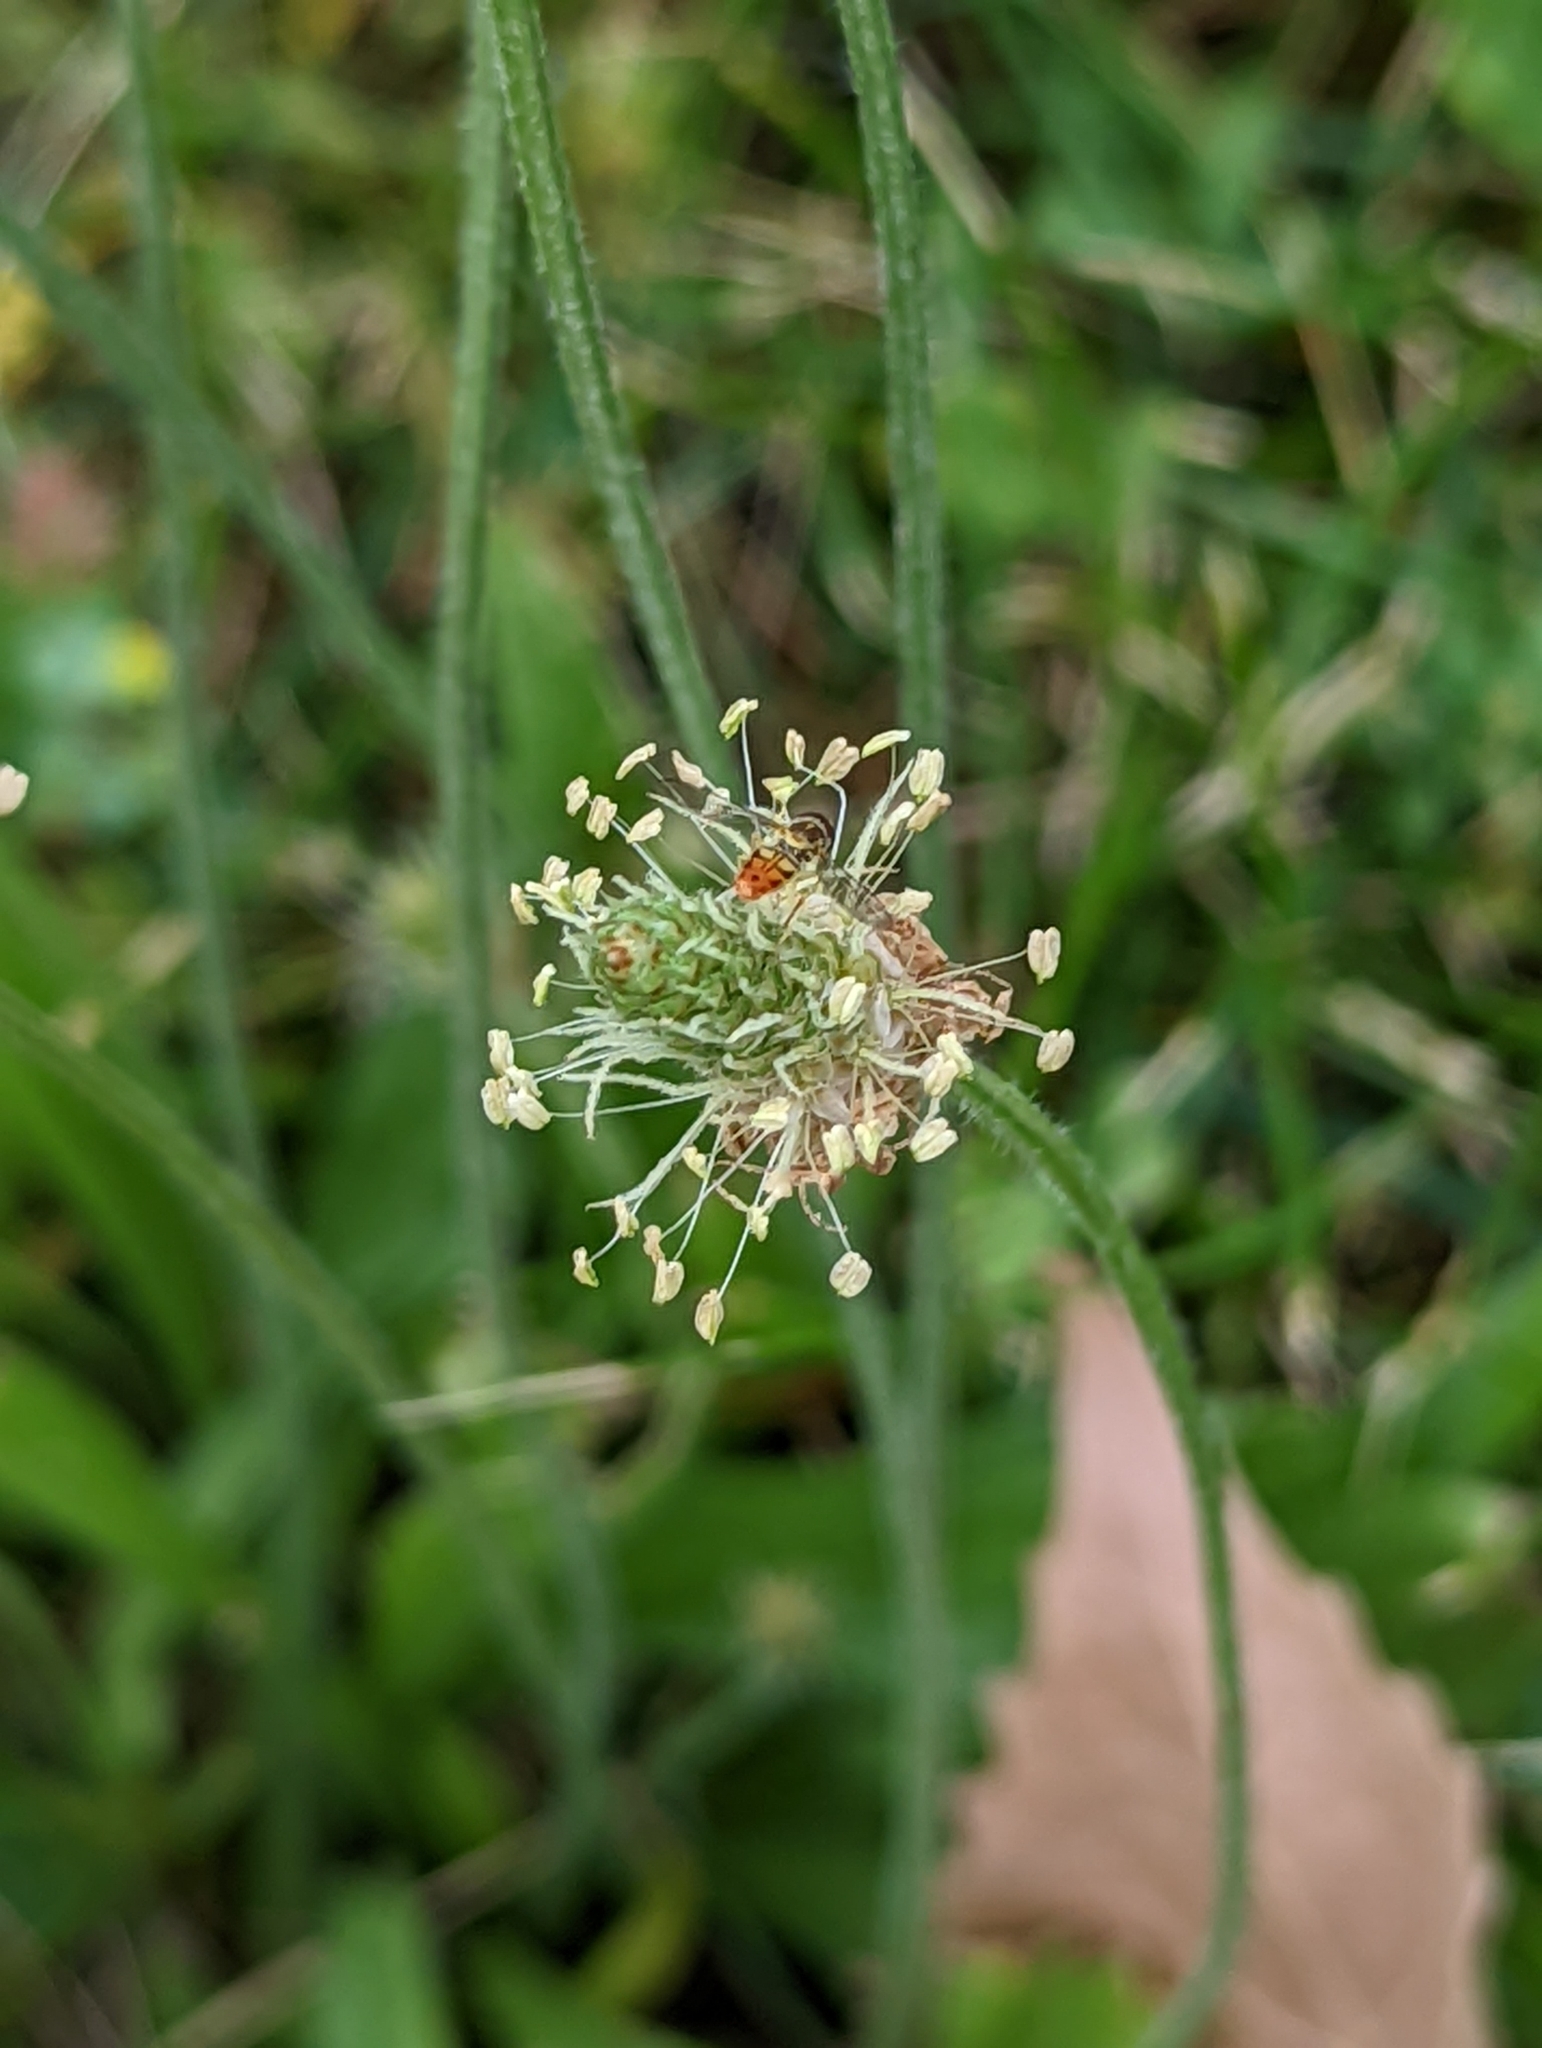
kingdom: Animalia
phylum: Arthropoda
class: Insecta
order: Diptera
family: Syrphidae
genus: Toxomerus
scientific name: Toxomerus marginatus
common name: Syrphid fly
